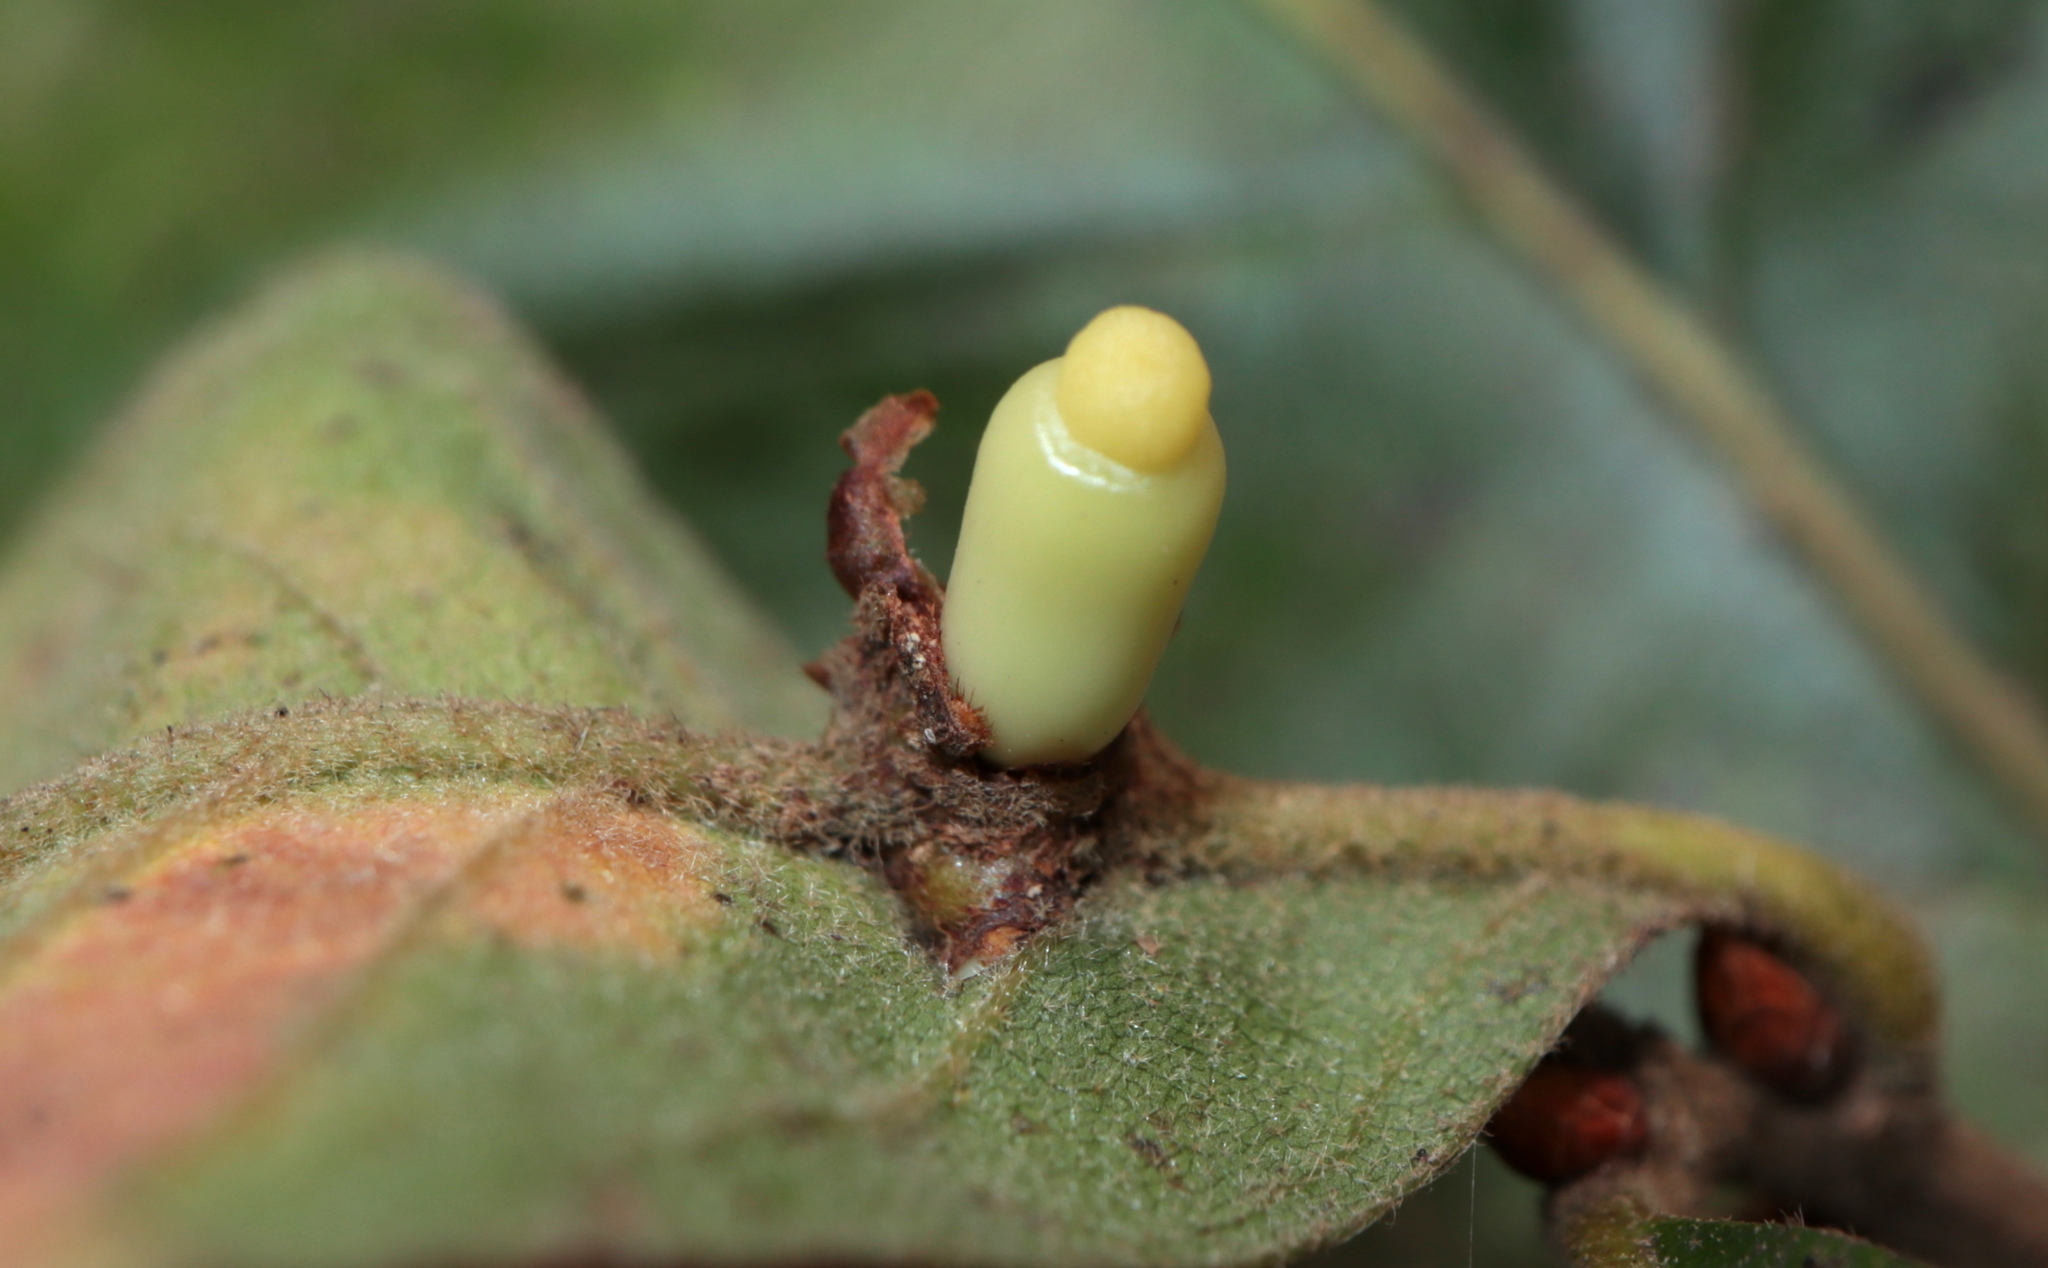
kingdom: Animalia
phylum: Arthropoda
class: Insecta
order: Hymenoptera
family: Cynipidae
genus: Kokkocynips
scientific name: Kokkocynips decidua
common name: Oak wheat gall
